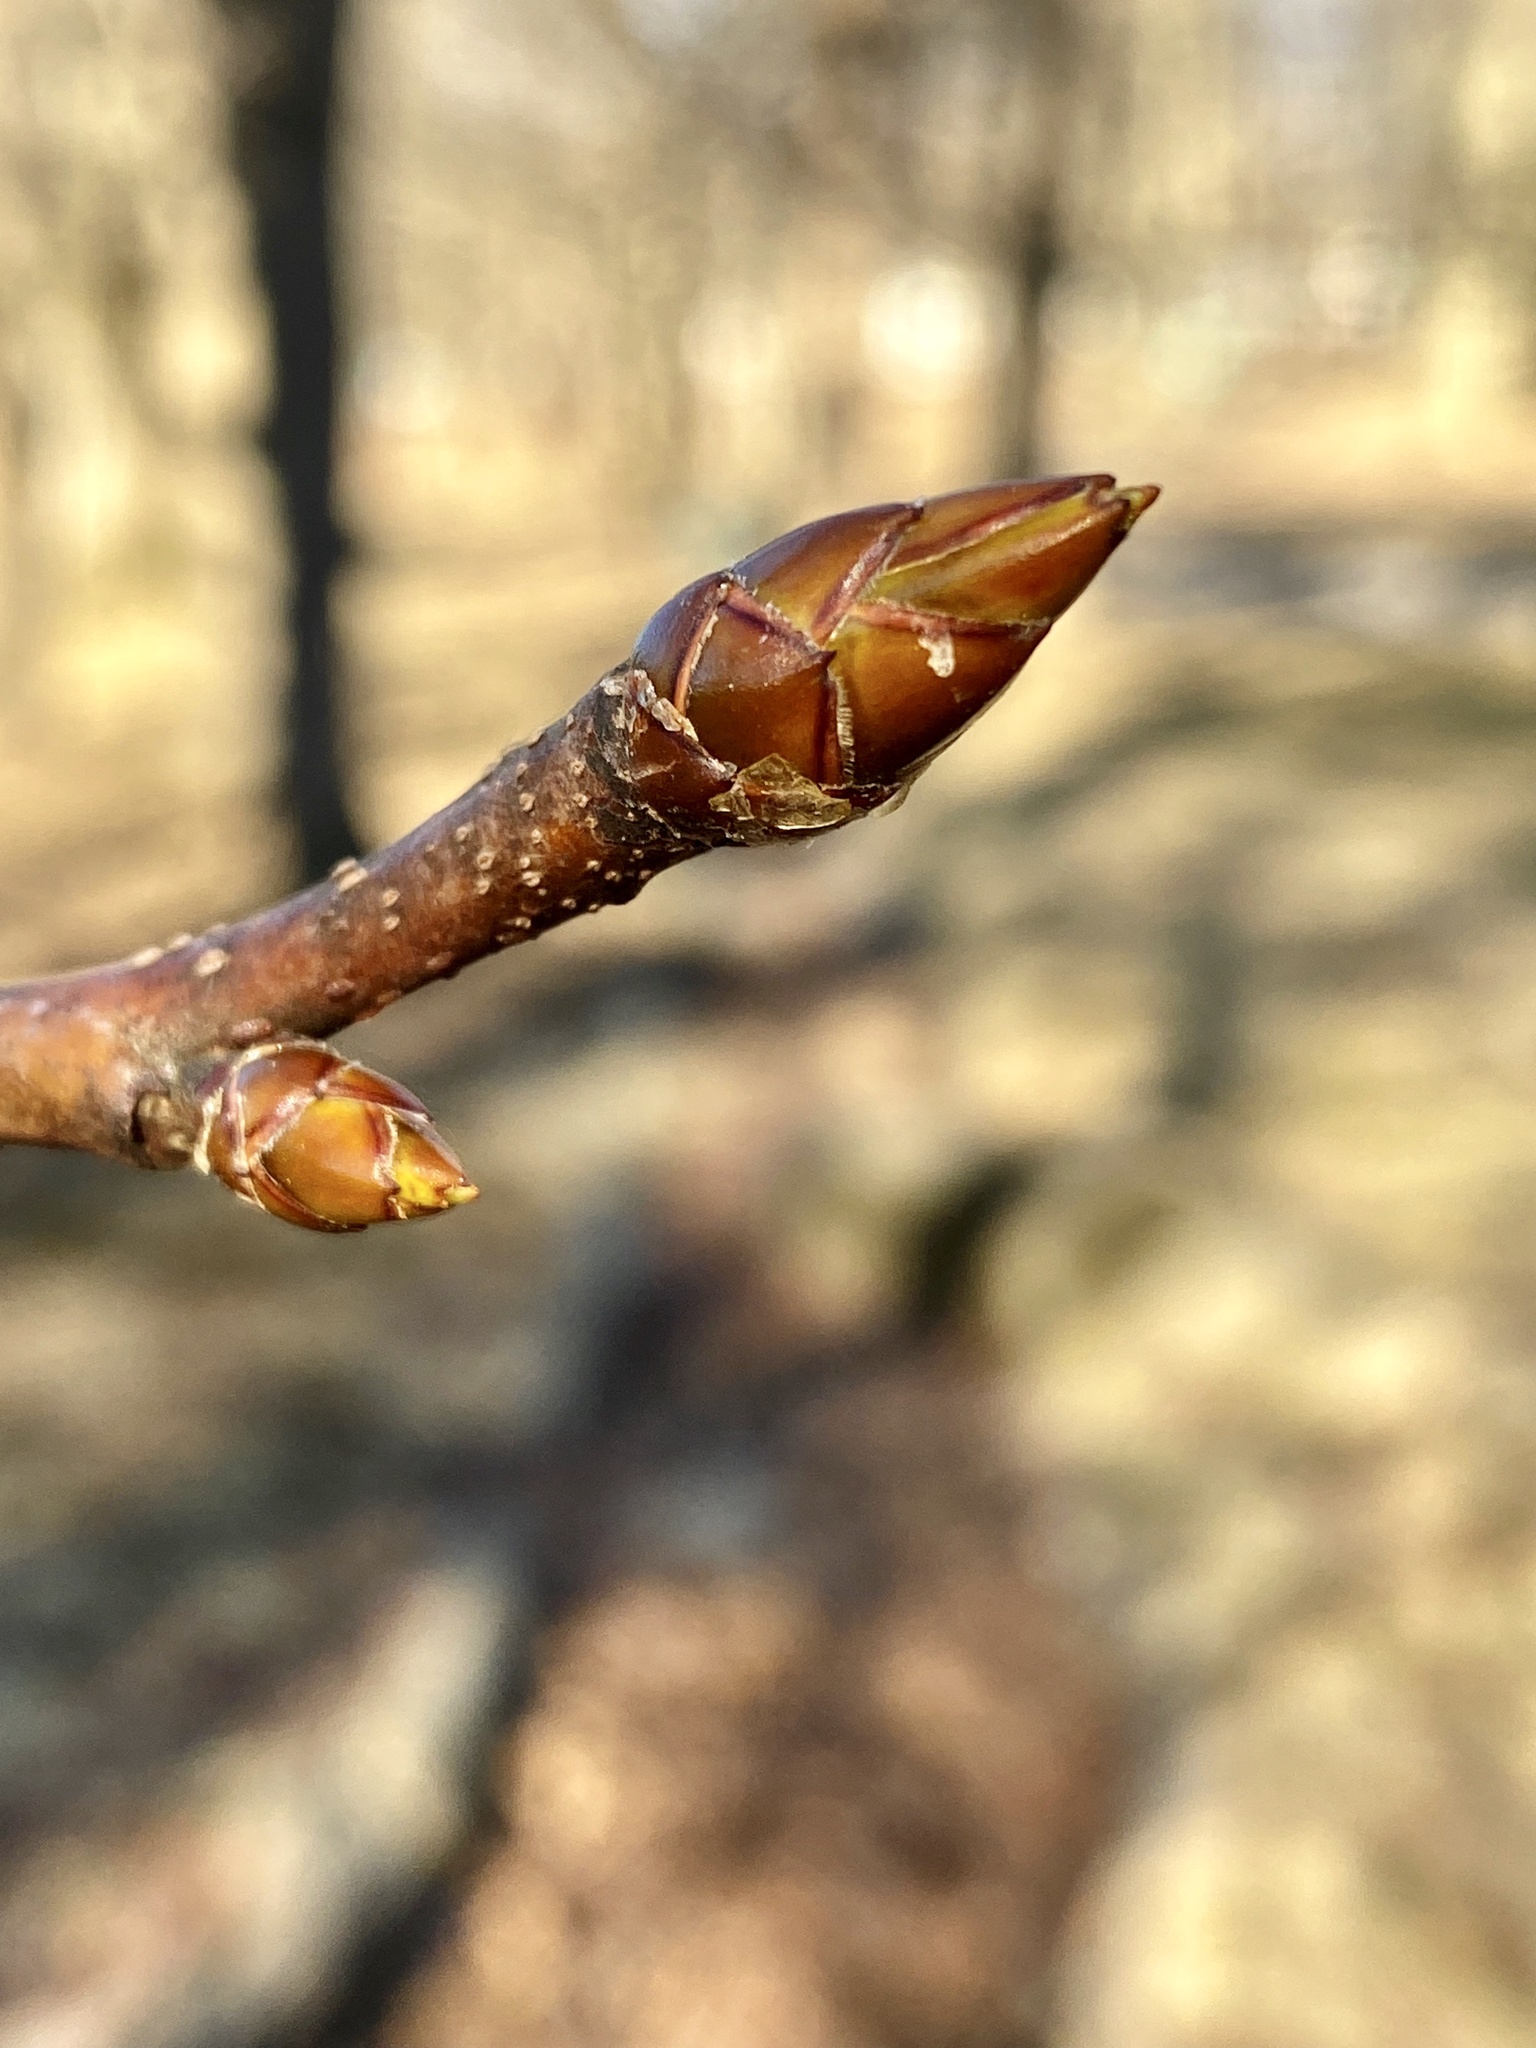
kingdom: Plantae
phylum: Tracheophyta
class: Magnoliopsida
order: Saxifragales
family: Altingiaceae
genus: Liquidambar
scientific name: Liquidambar styraciflua
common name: Sweet gum
